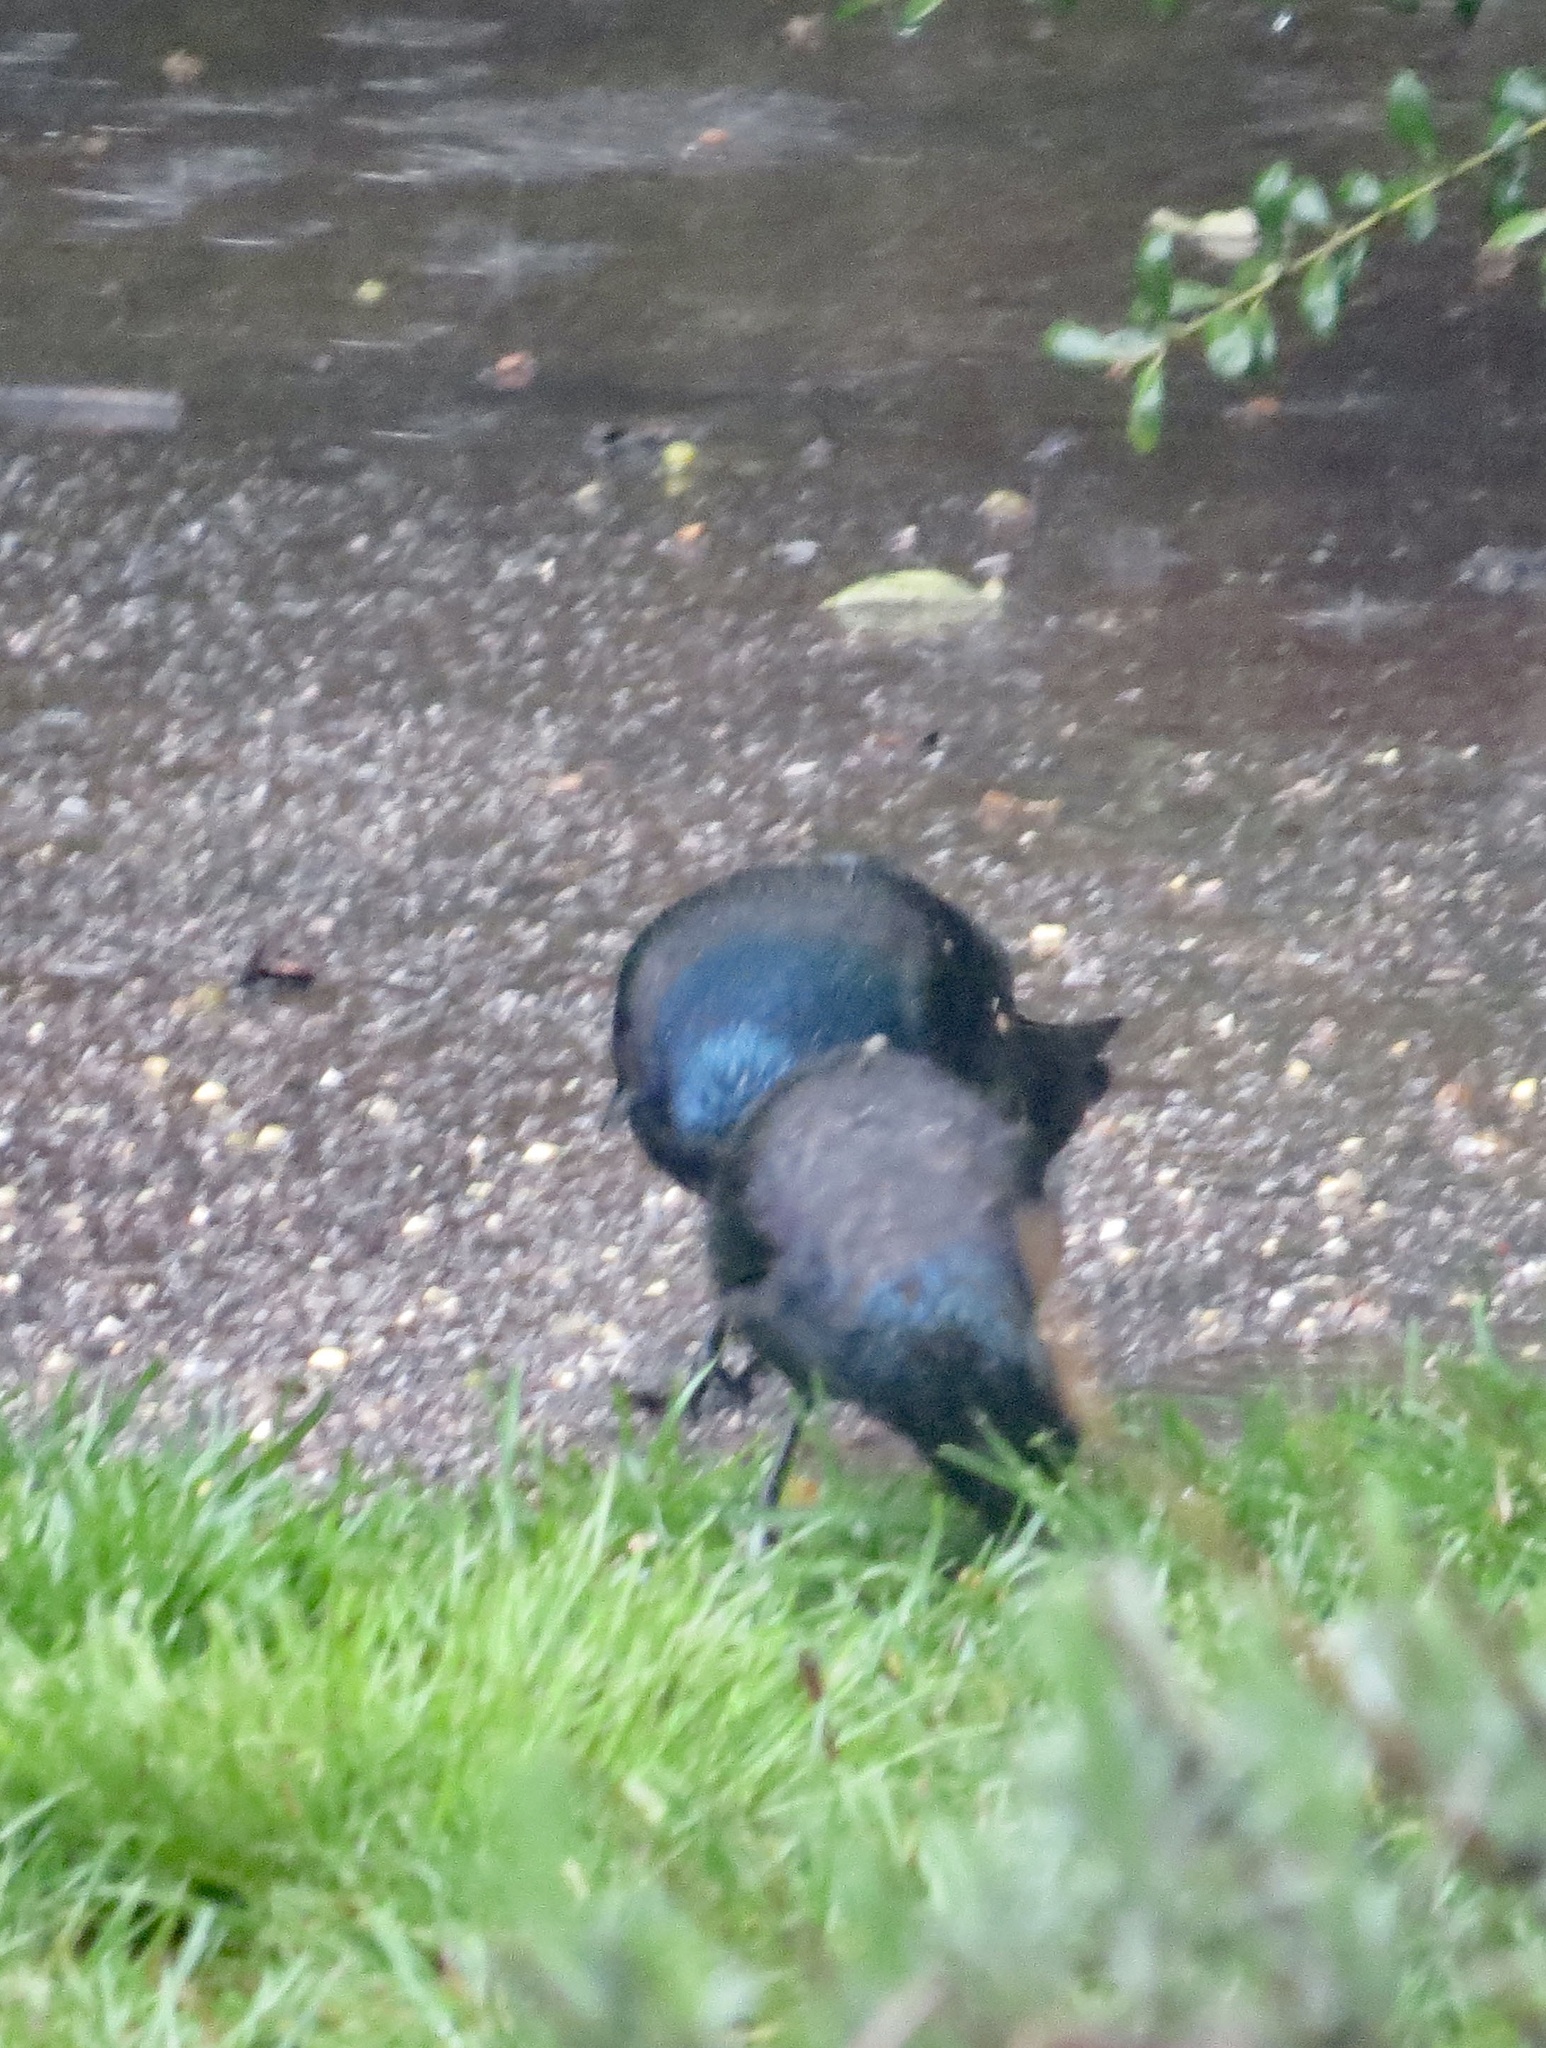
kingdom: Animalia
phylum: Chordata
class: Aves
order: Passeriformes
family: Icteridae
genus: Quiscalus
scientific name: Quiscalus quiscula
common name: Common grackle
